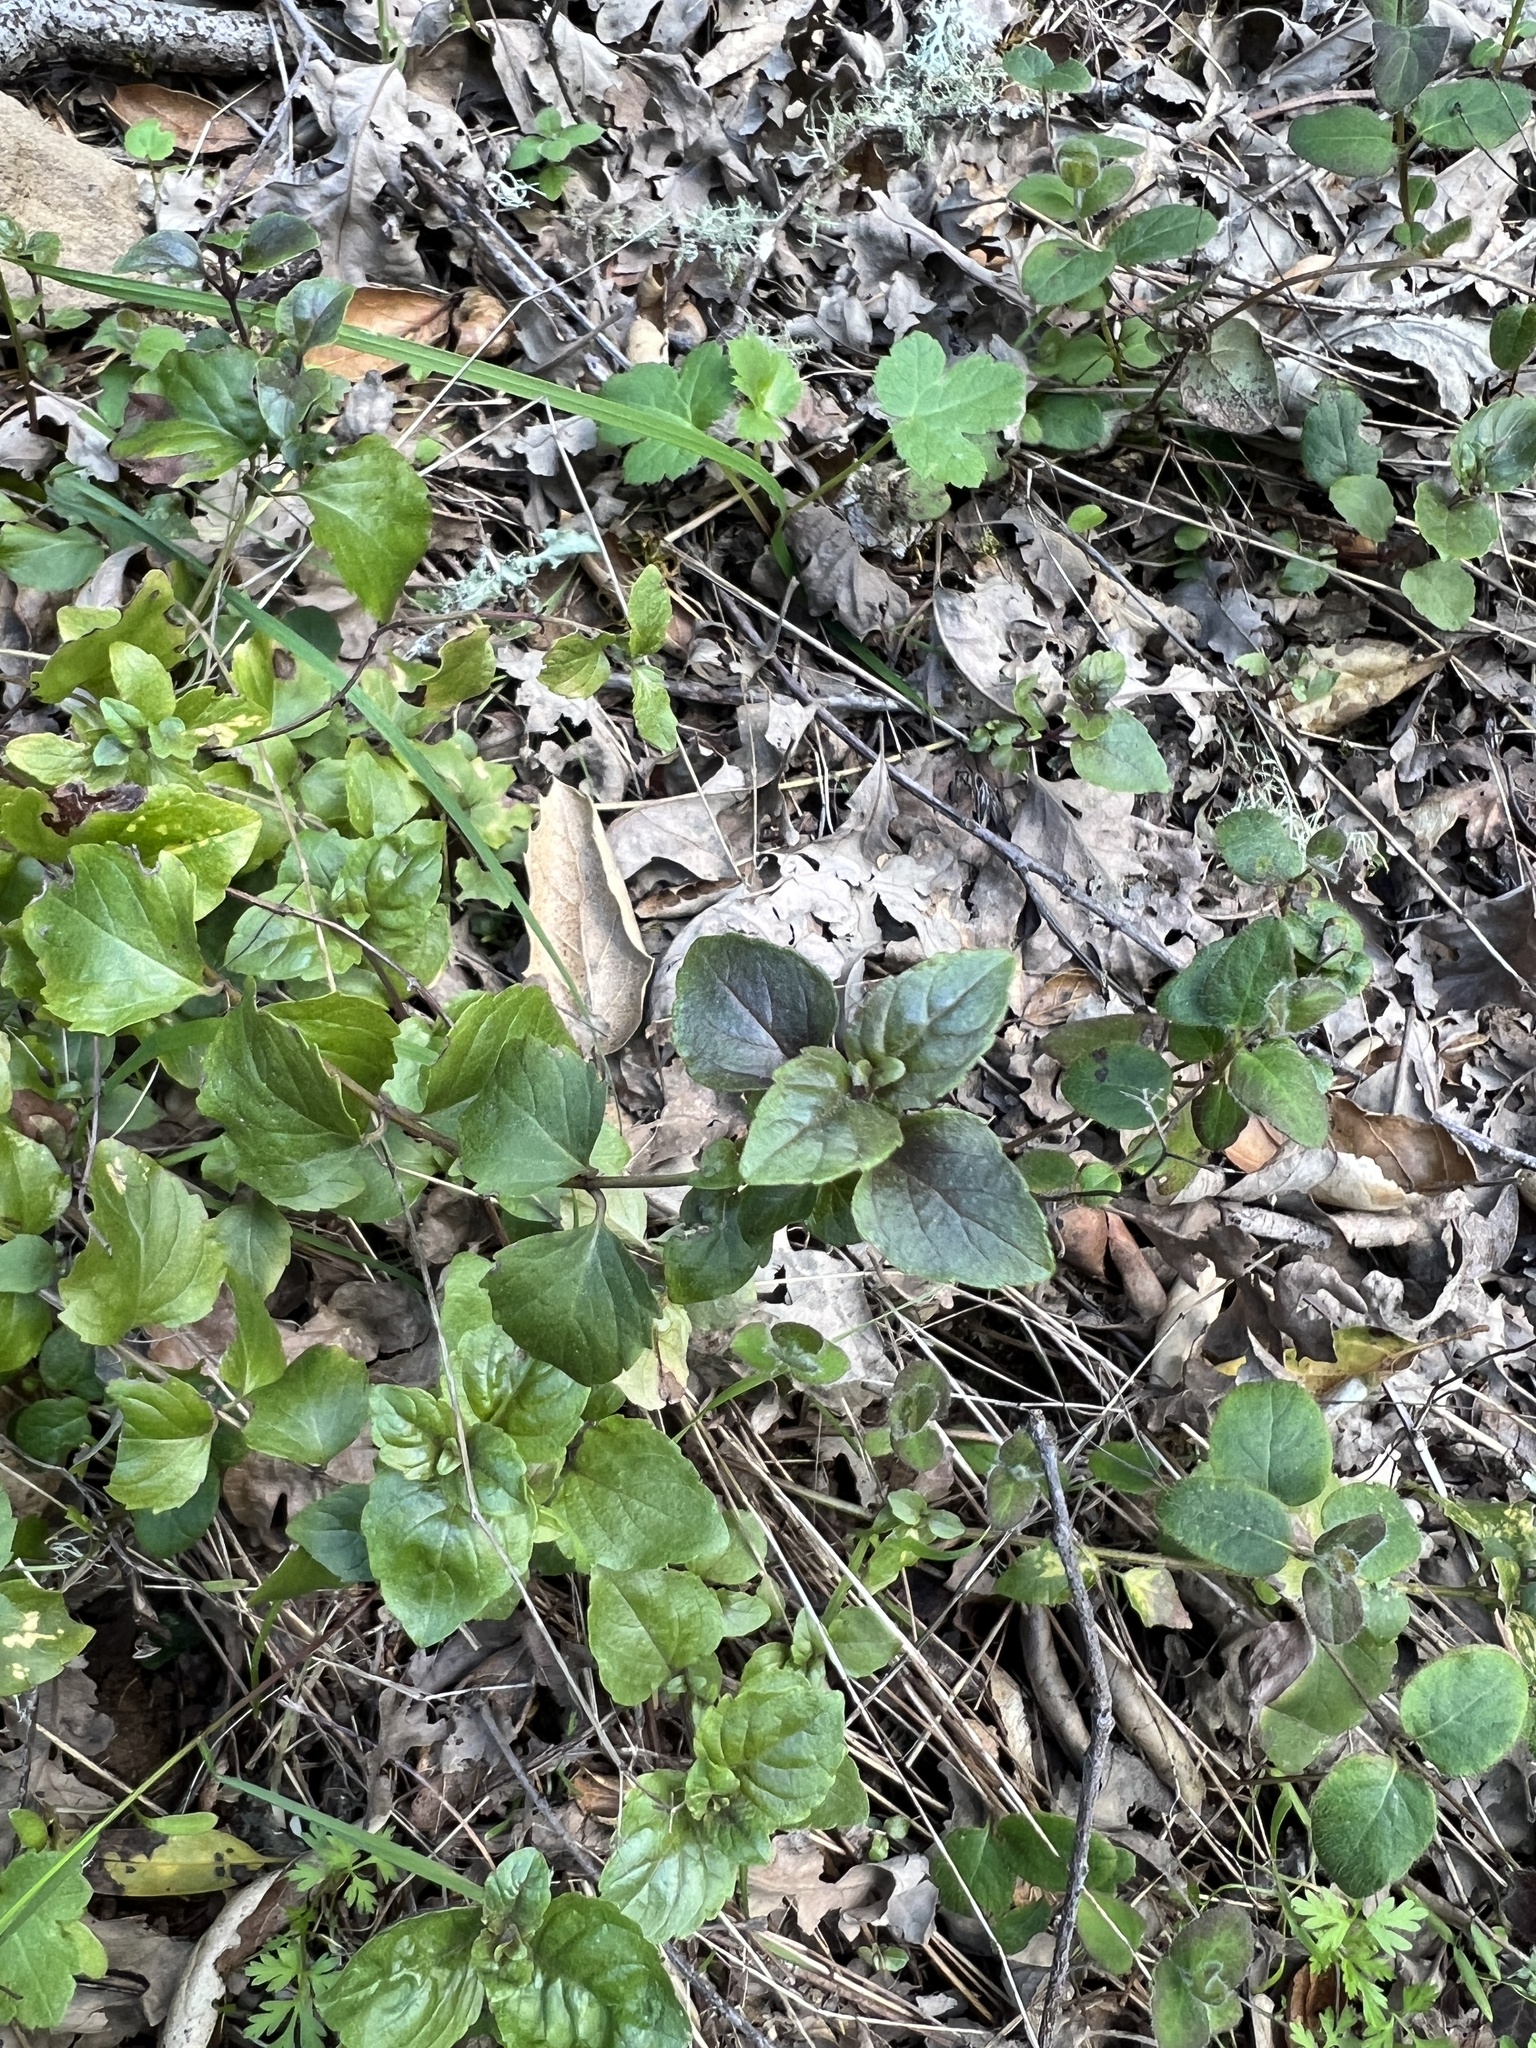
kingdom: Plantae
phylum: Tracheophyta
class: Magnoliopsida
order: Lamiales
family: Lamiaceae
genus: Micromeria
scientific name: Micromeria douglasii
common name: Yerba buena
